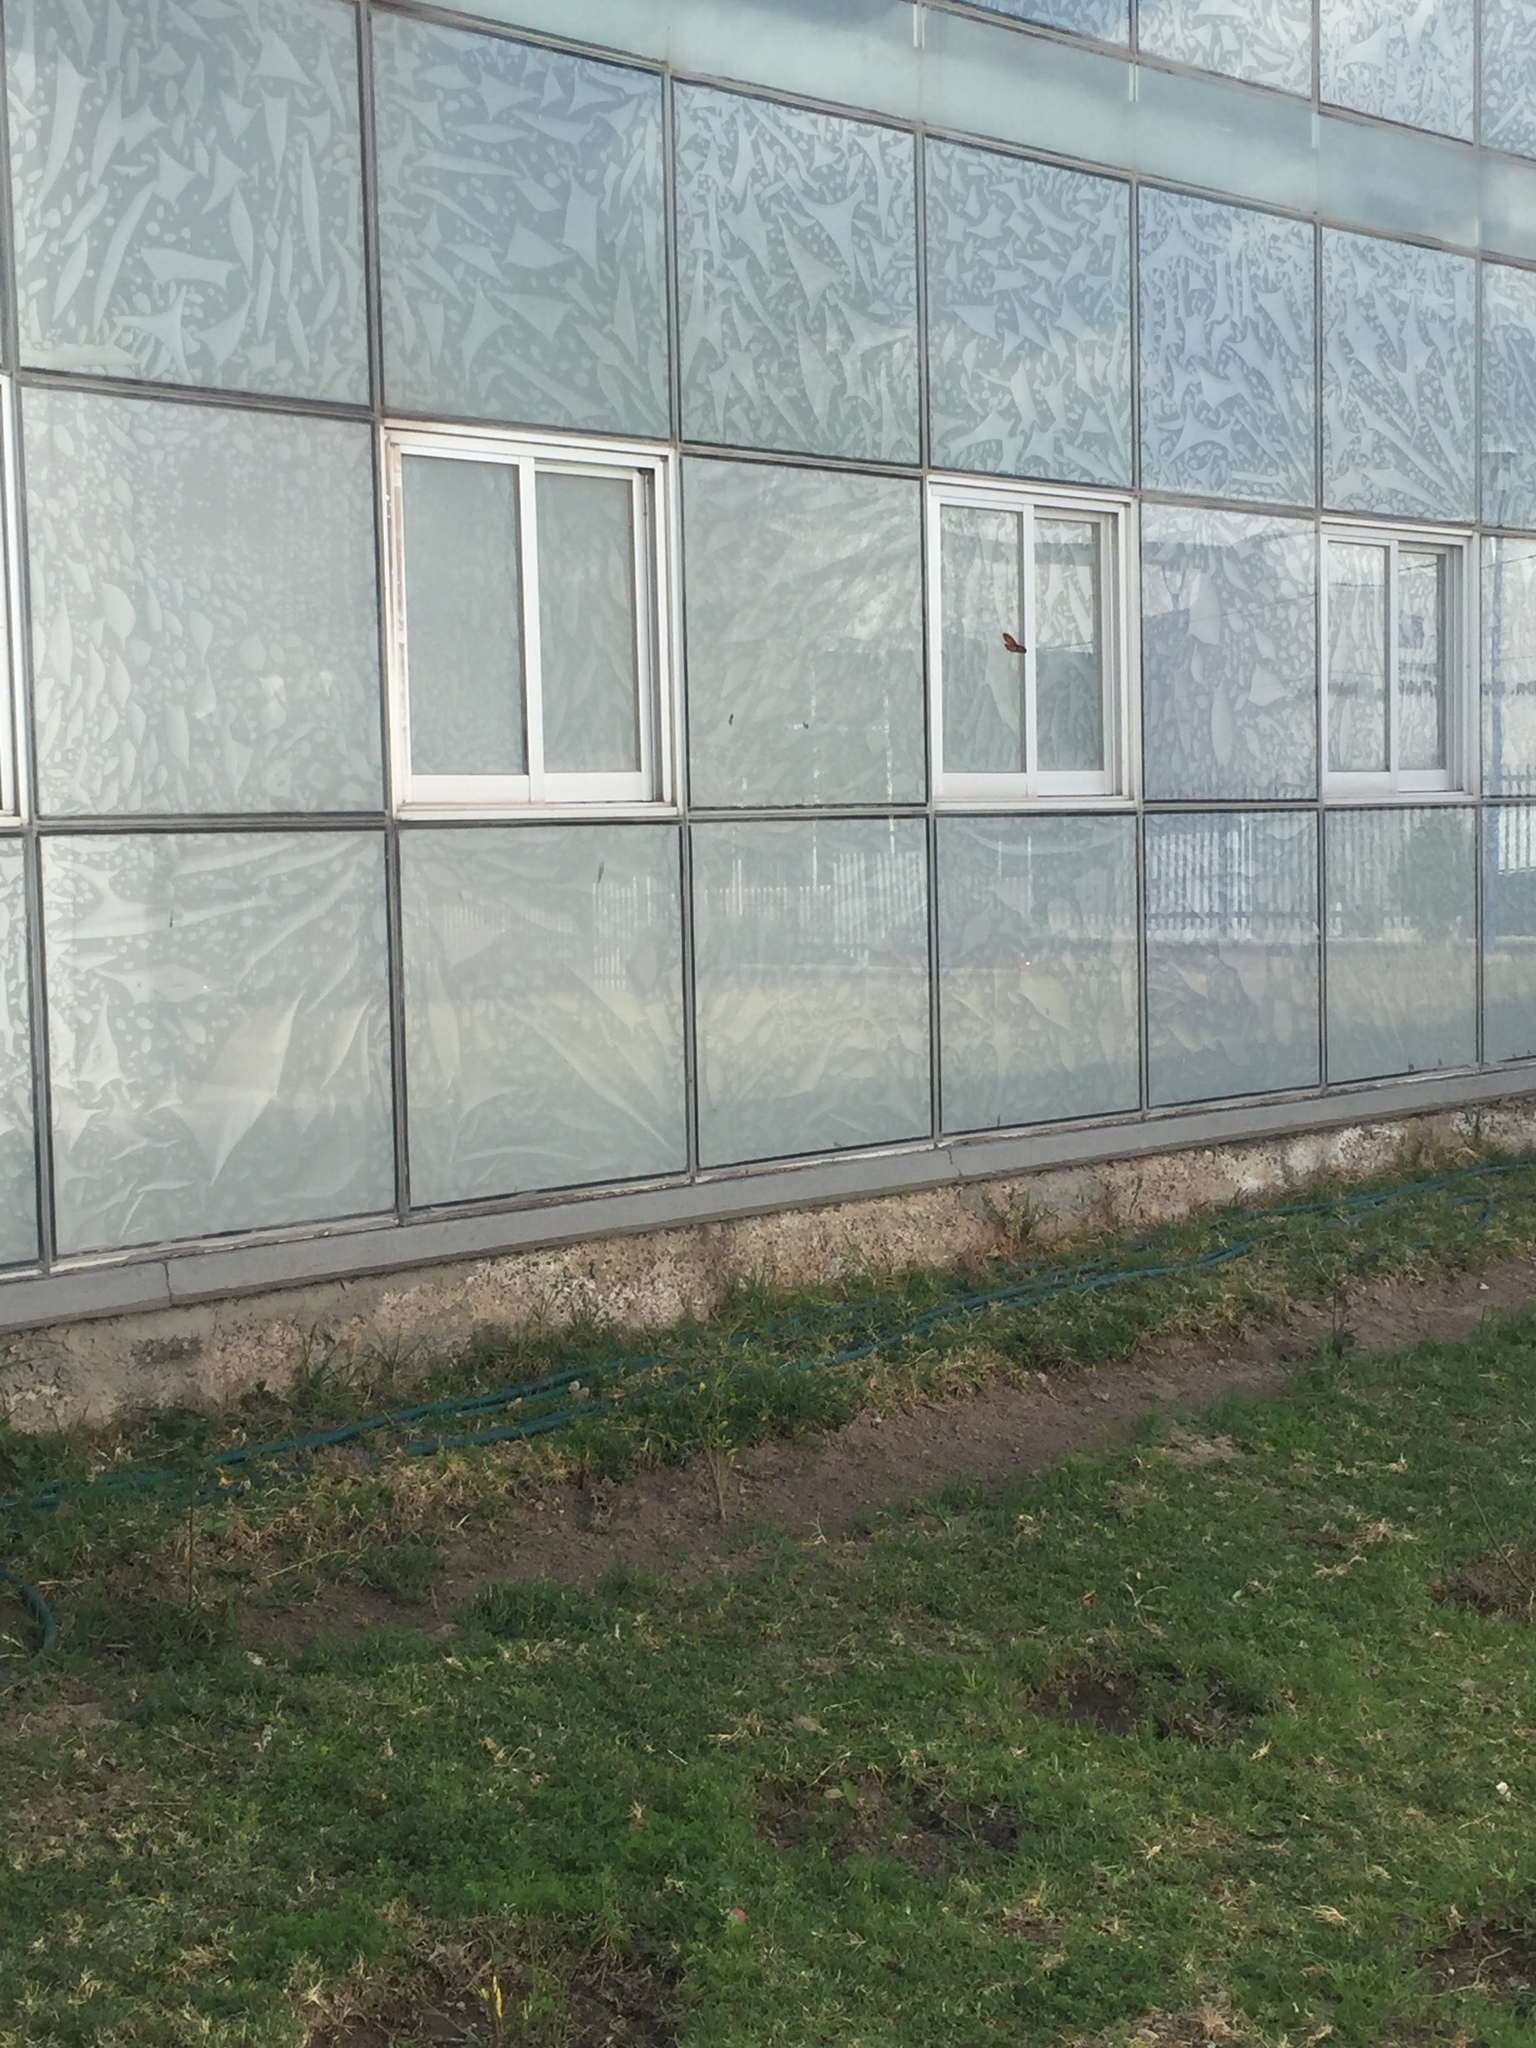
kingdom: Animalia
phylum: Arthropoda
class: Insecta
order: Lepidoptera
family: Nymphalidae
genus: Danaus
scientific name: Danaus plexippus
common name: Monarch
